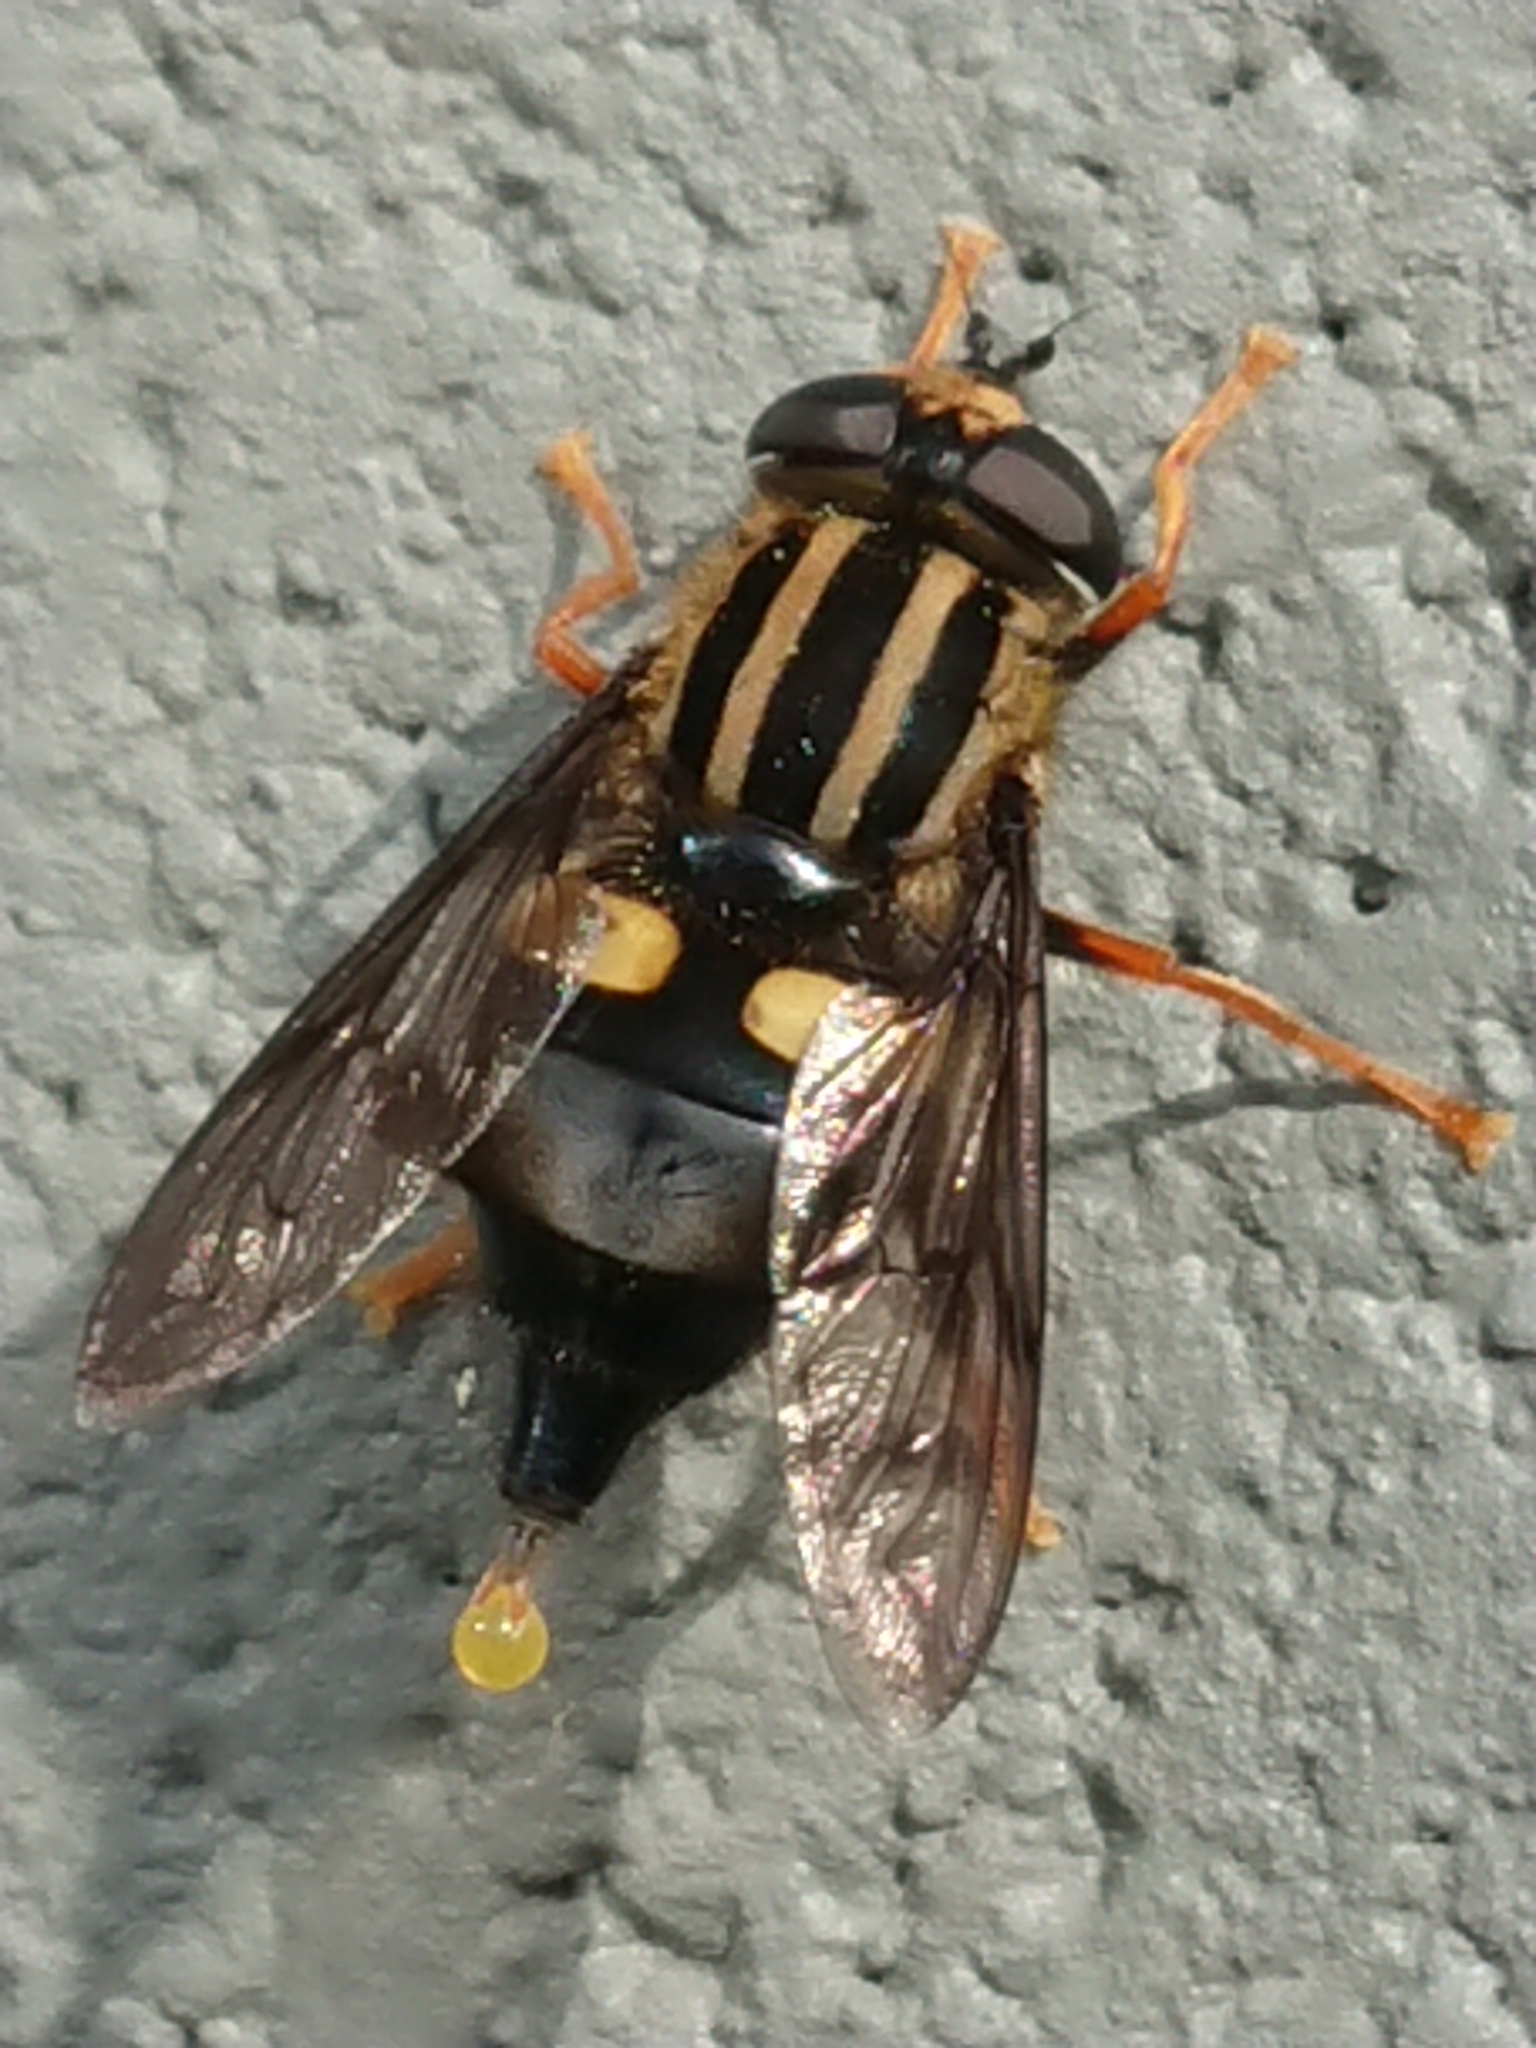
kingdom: Animalia
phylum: Arthropoda
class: Insecta
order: Diptera
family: Syrphidae
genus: Helophilus
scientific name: Helophilus seelandicus
